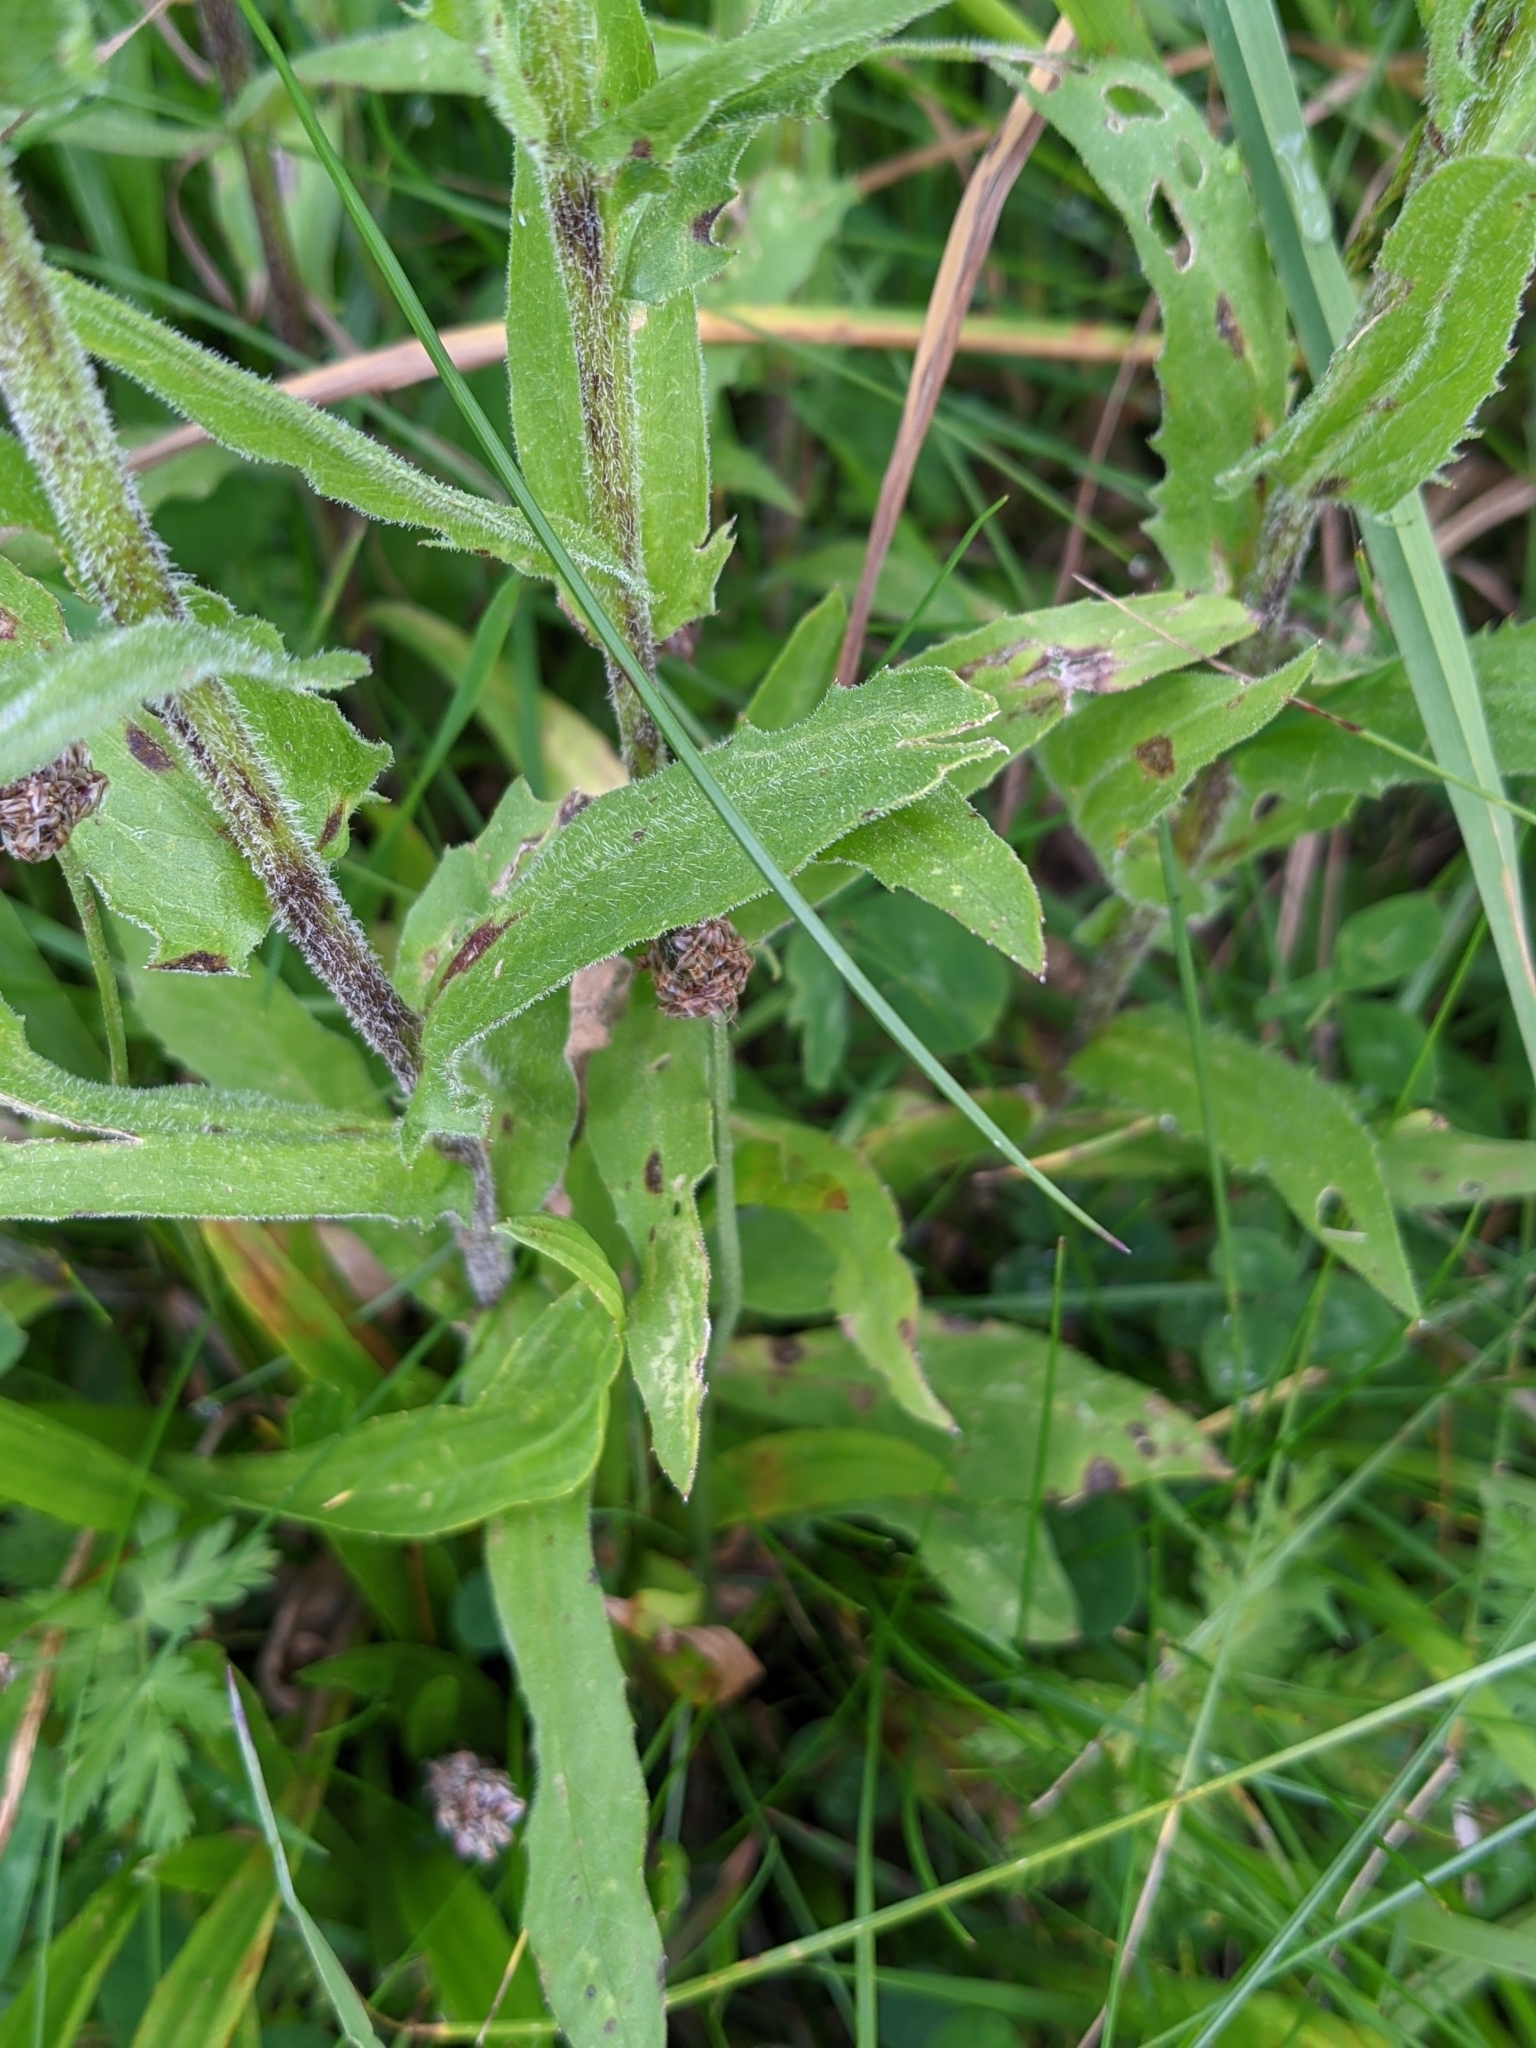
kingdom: Plantae
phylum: Tracheophyta
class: Magnoliopsida
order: Asterales
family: Asteraceae
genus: Centaurea
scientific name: Centaurea nervosa
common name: Singleflower knapweed
